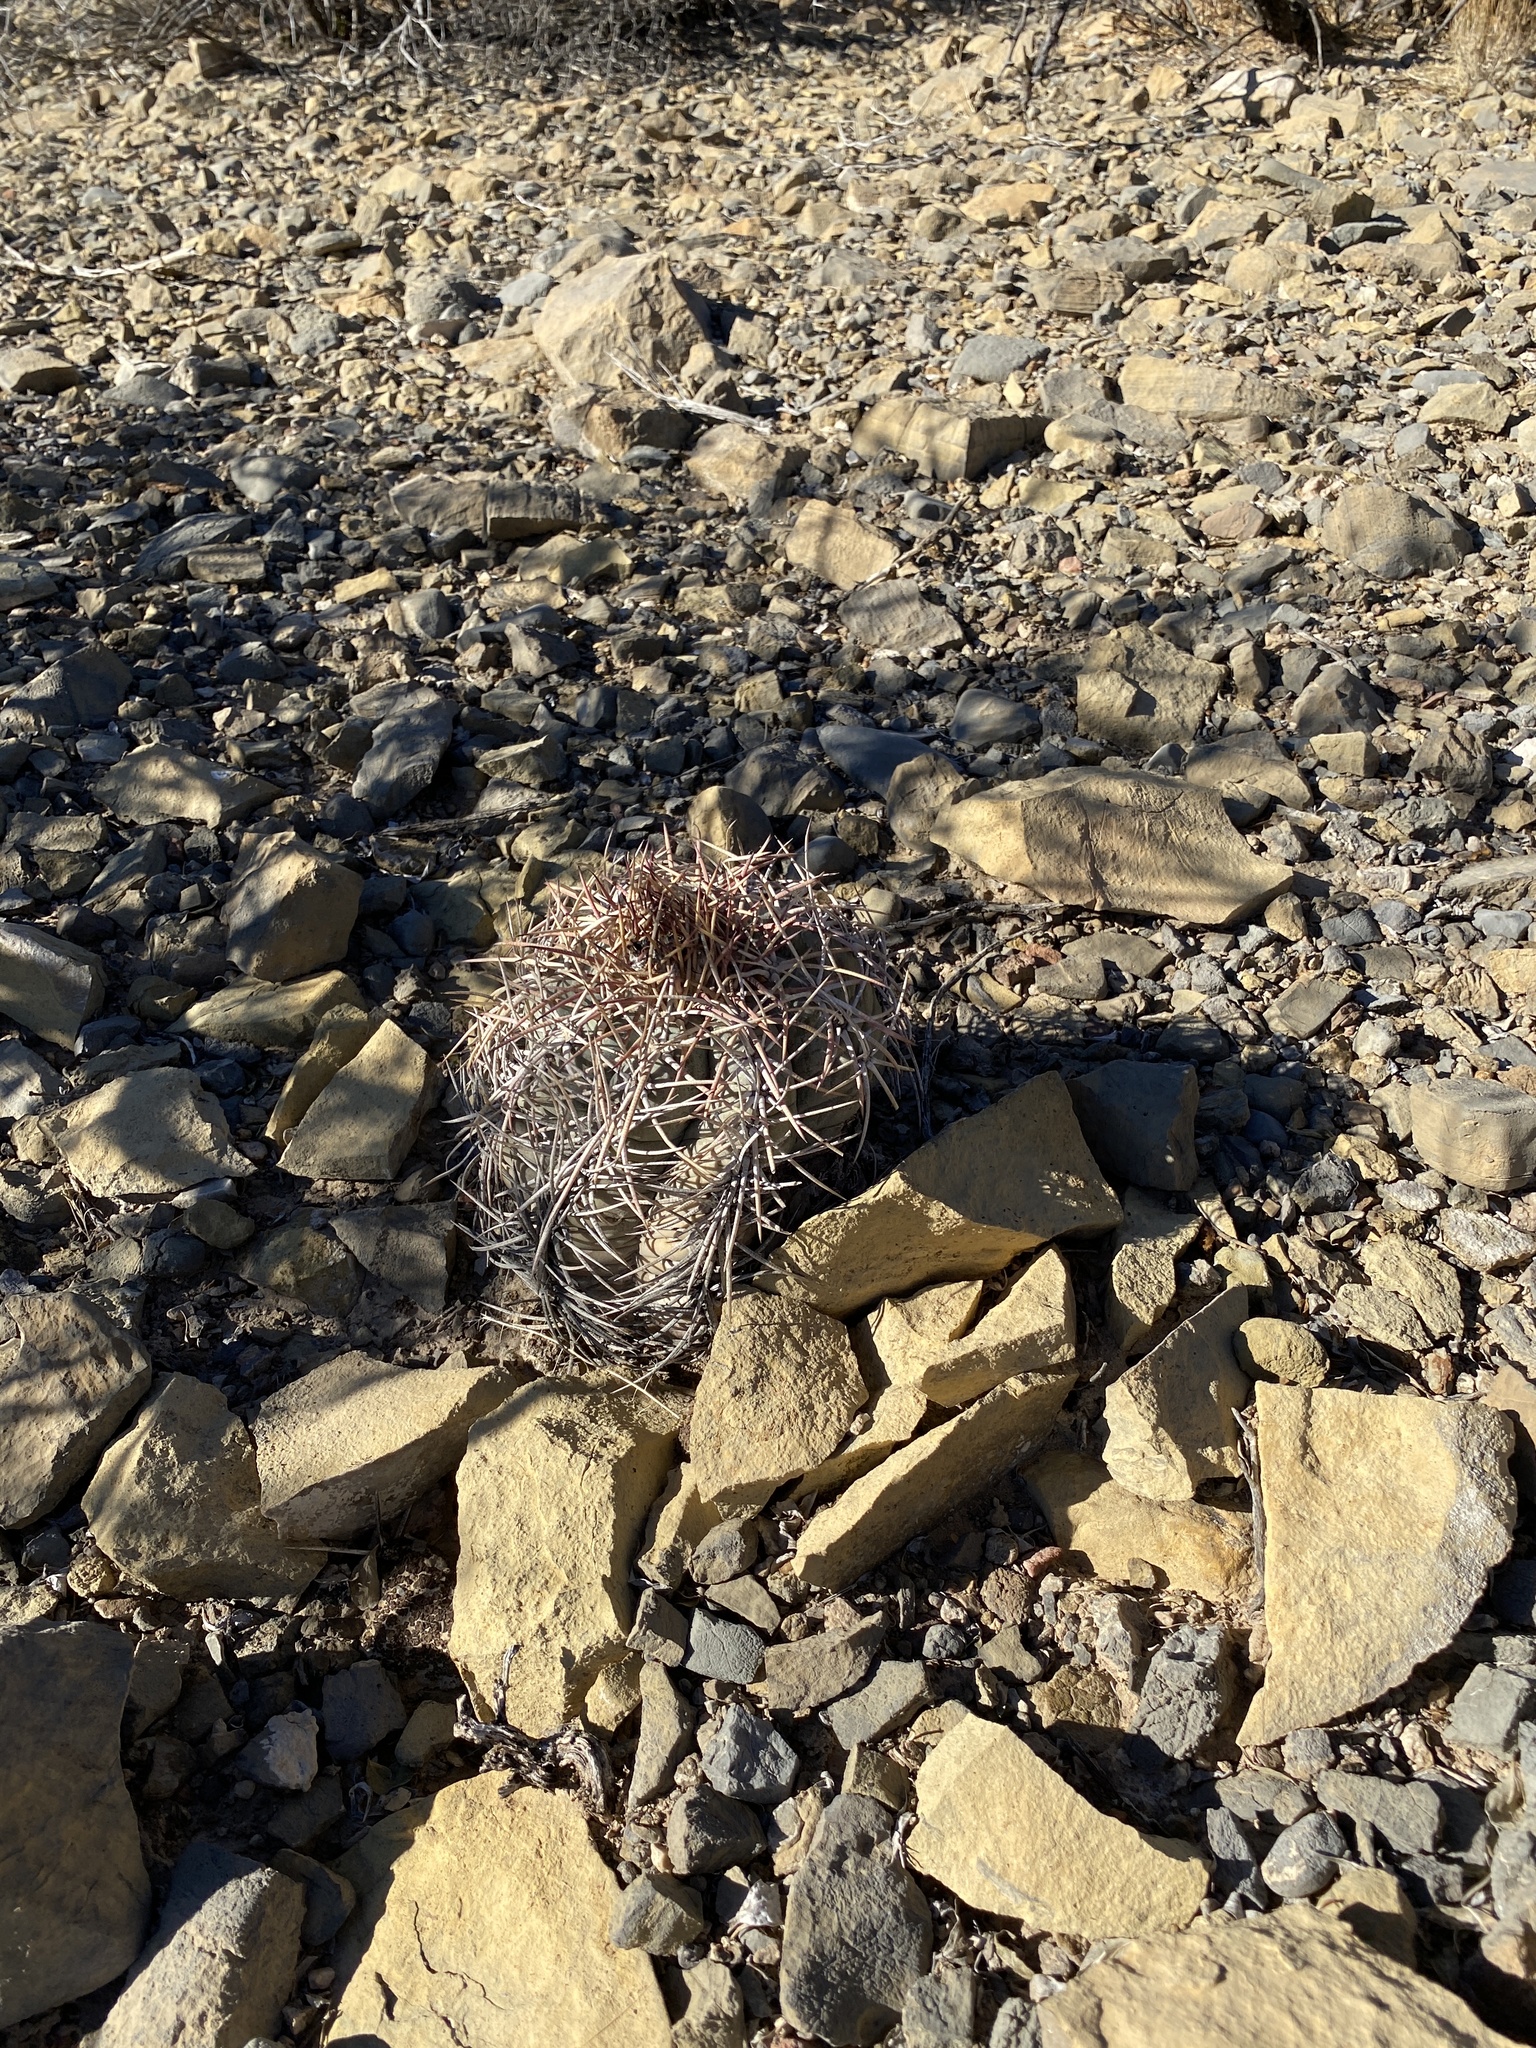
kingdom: Plantae
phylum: Tracheophyta
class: Magnoliopsida
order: Caryophyllales
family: Cactaceae
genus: Echinocactus
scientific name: Echinocactus horizonthalonius
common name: Devilshead
